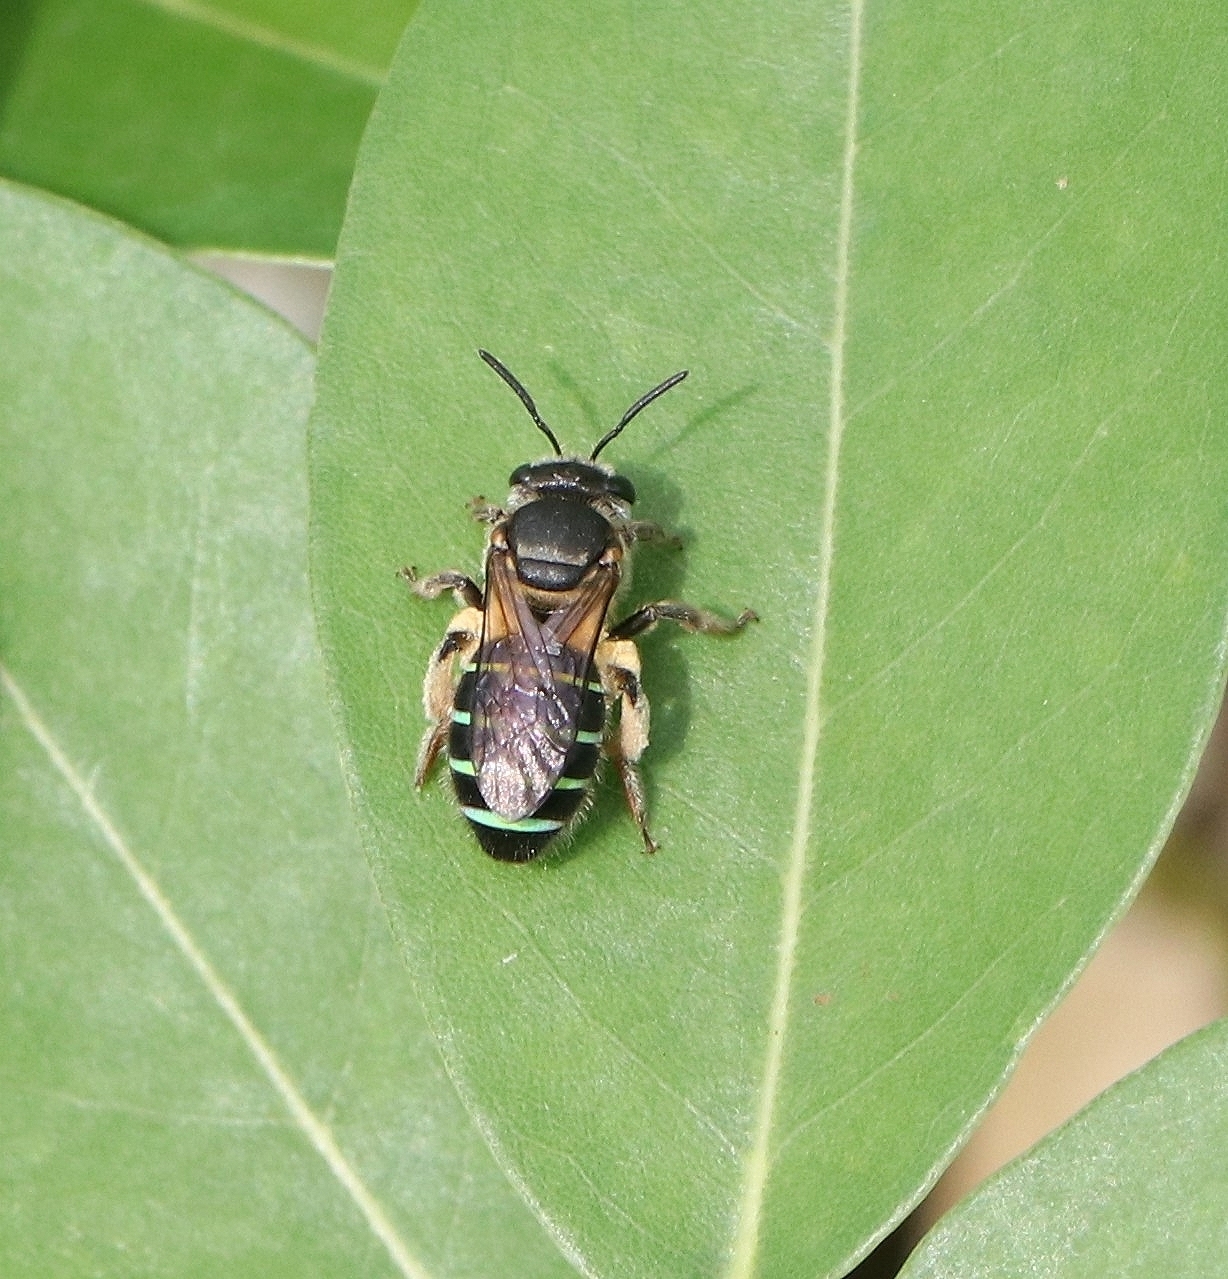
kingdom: Animalia
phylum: Arthropoda
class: Insecta
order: Hymenoptera
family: Halictidae
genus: Nomia
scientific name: Nomia strigata
